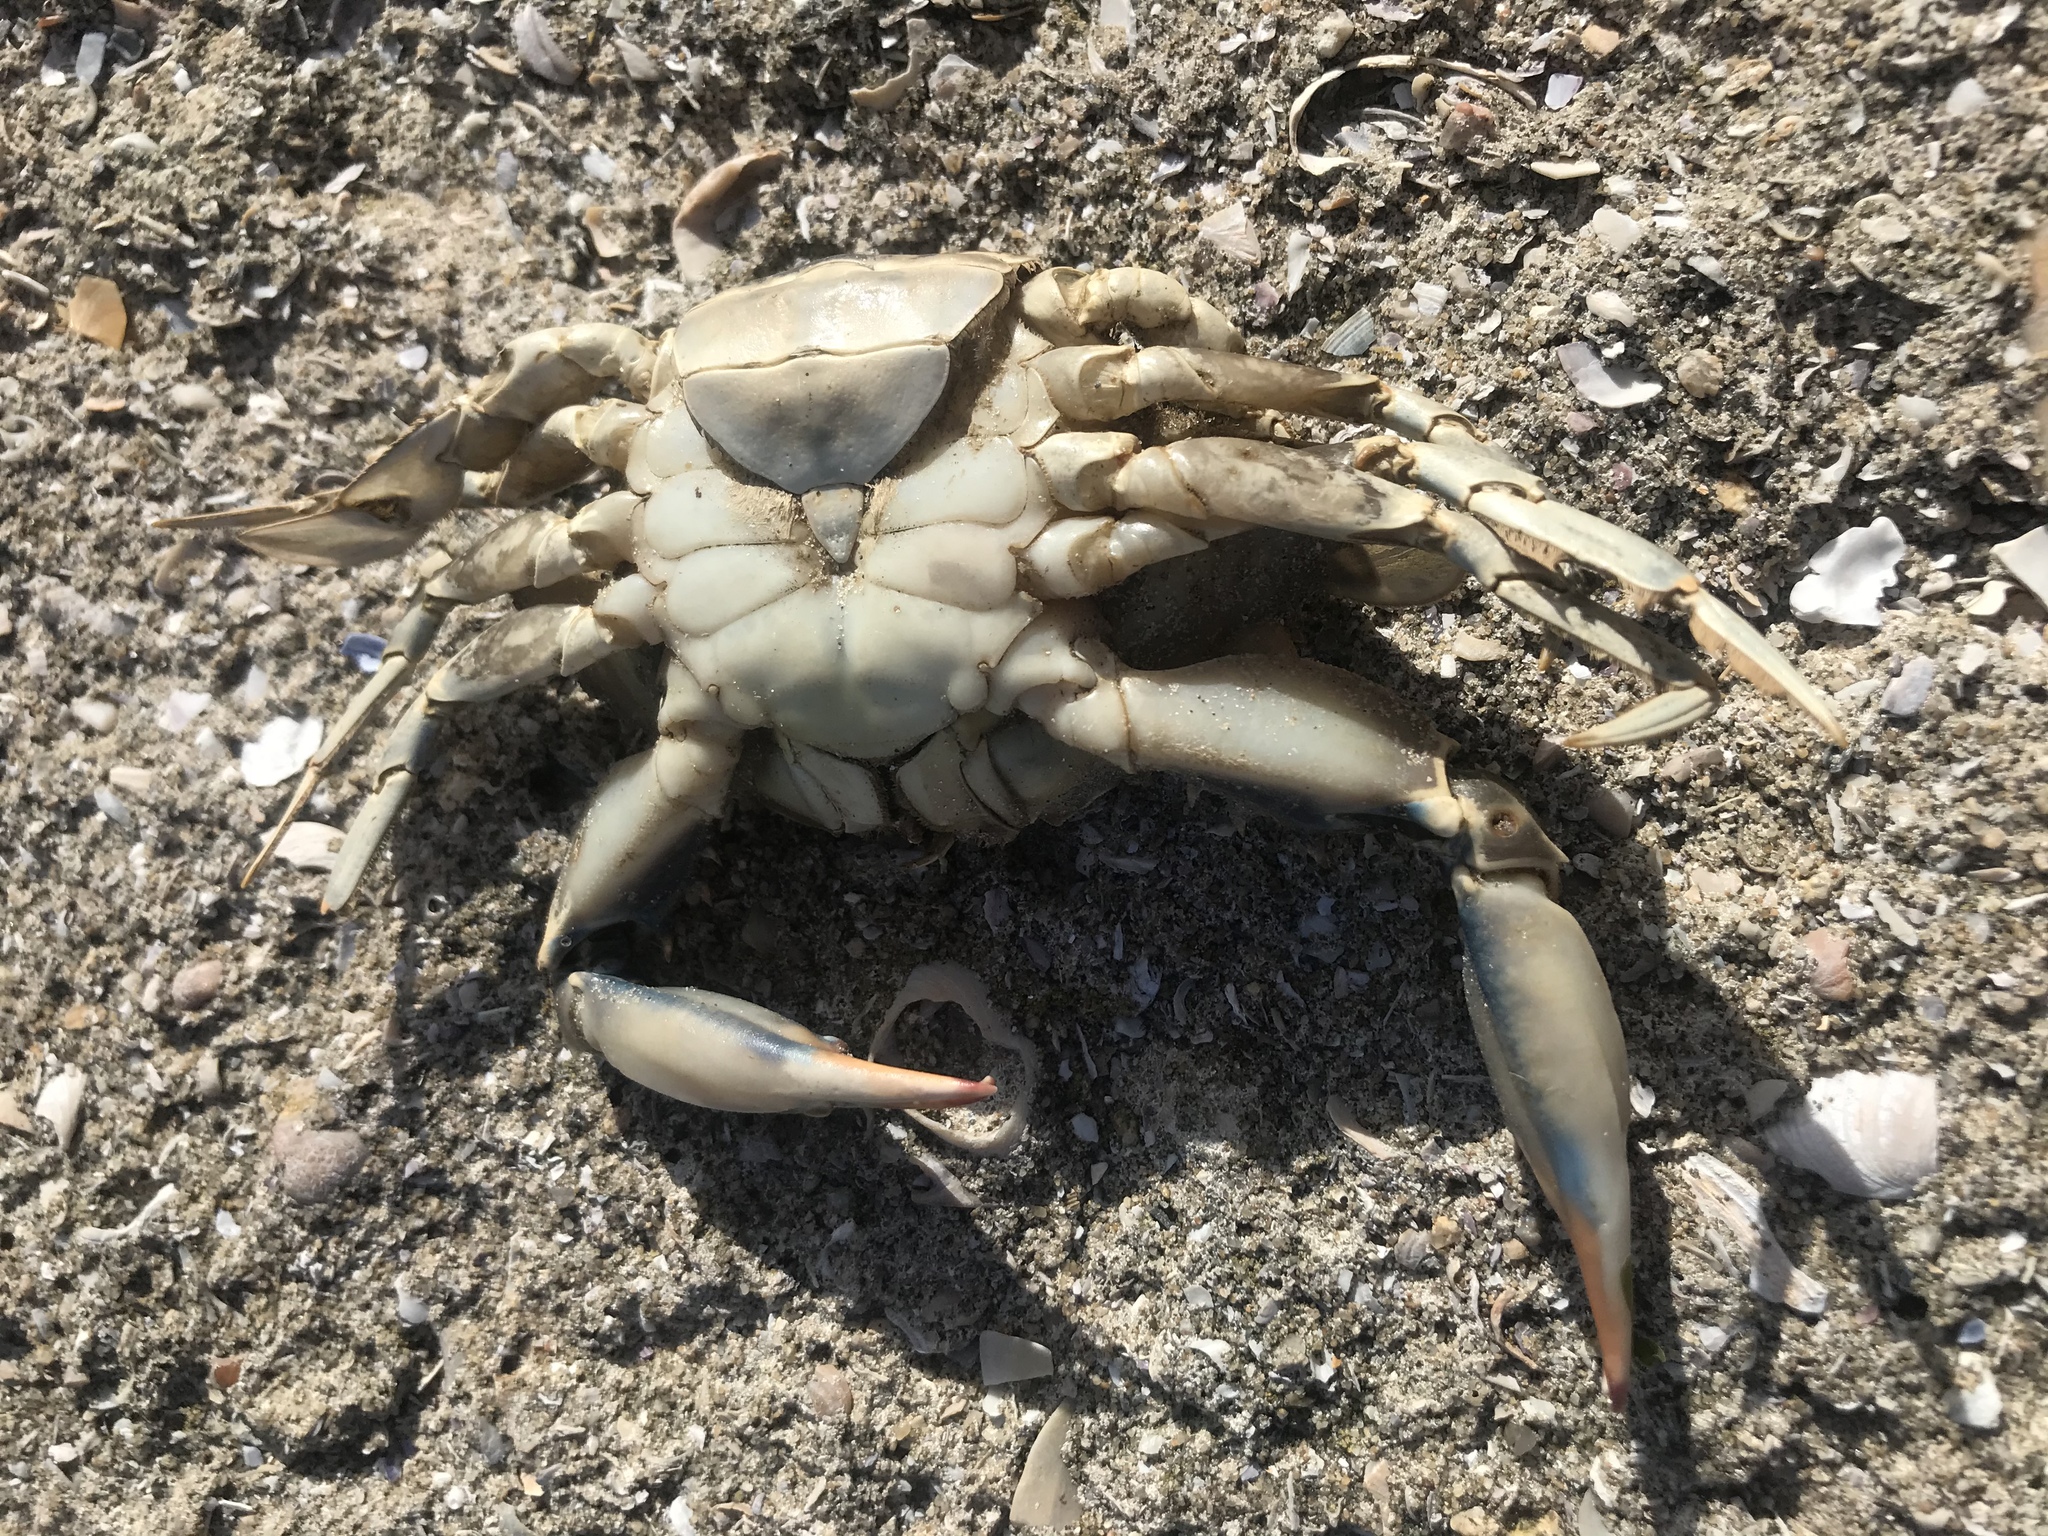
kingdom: Animalia
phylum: Arthropoda
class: Malacostraca
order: Decapoda
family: Portunidae
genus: Callinectes
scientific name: Callinectes sapidus
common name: Blue crab
